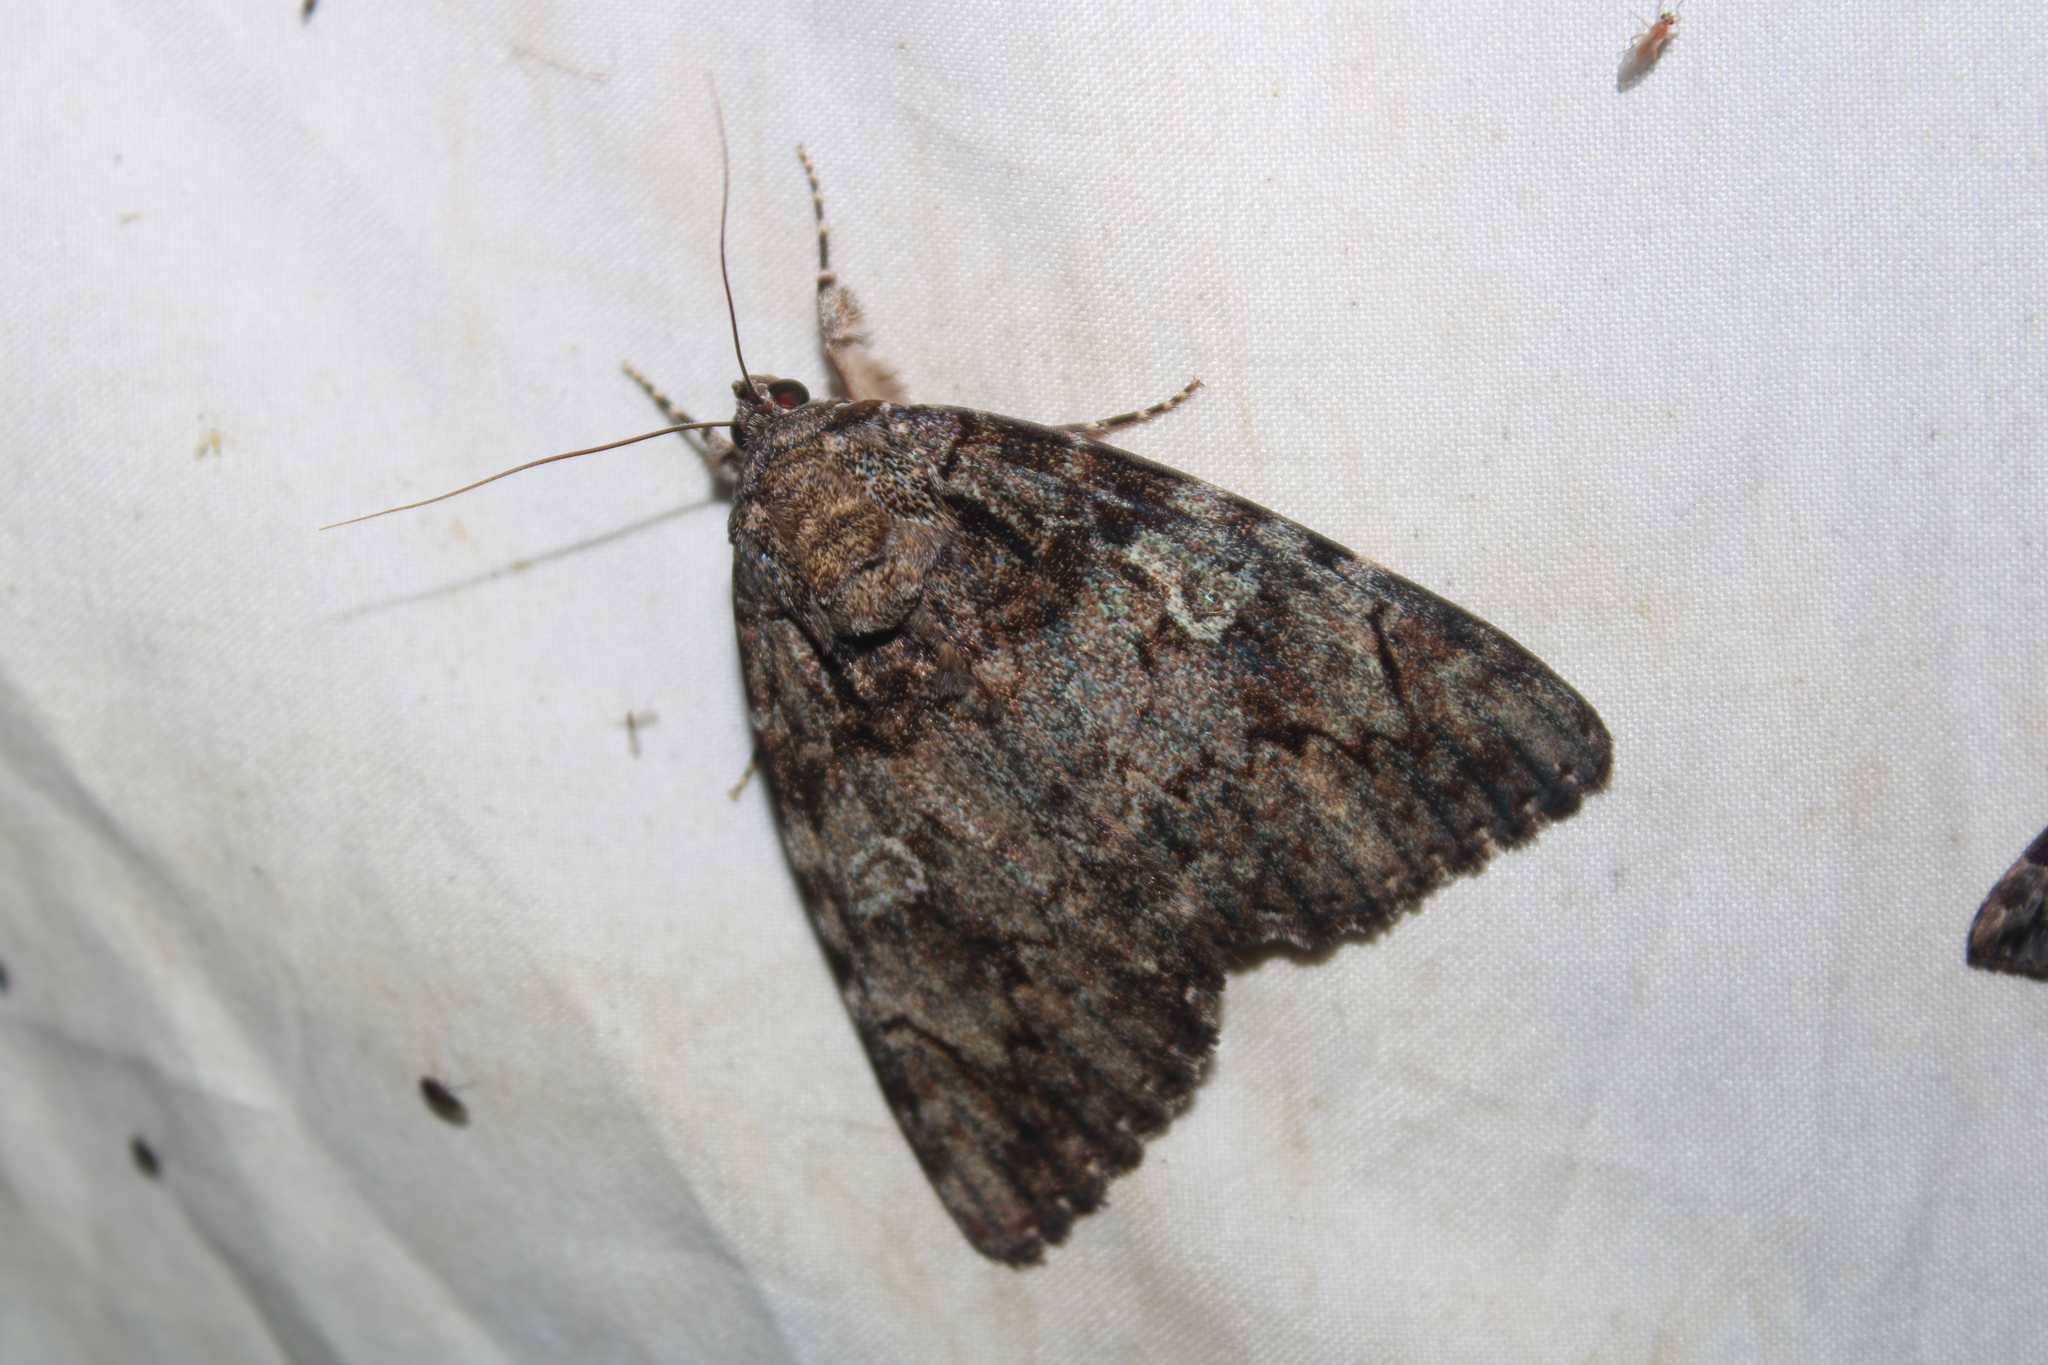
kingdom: Animalia
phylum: Arthropoda
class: Insecta
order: Lepidoptera
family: Erebidae
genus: Catocala
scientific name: Catocala ilia
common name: Ilia underwing
